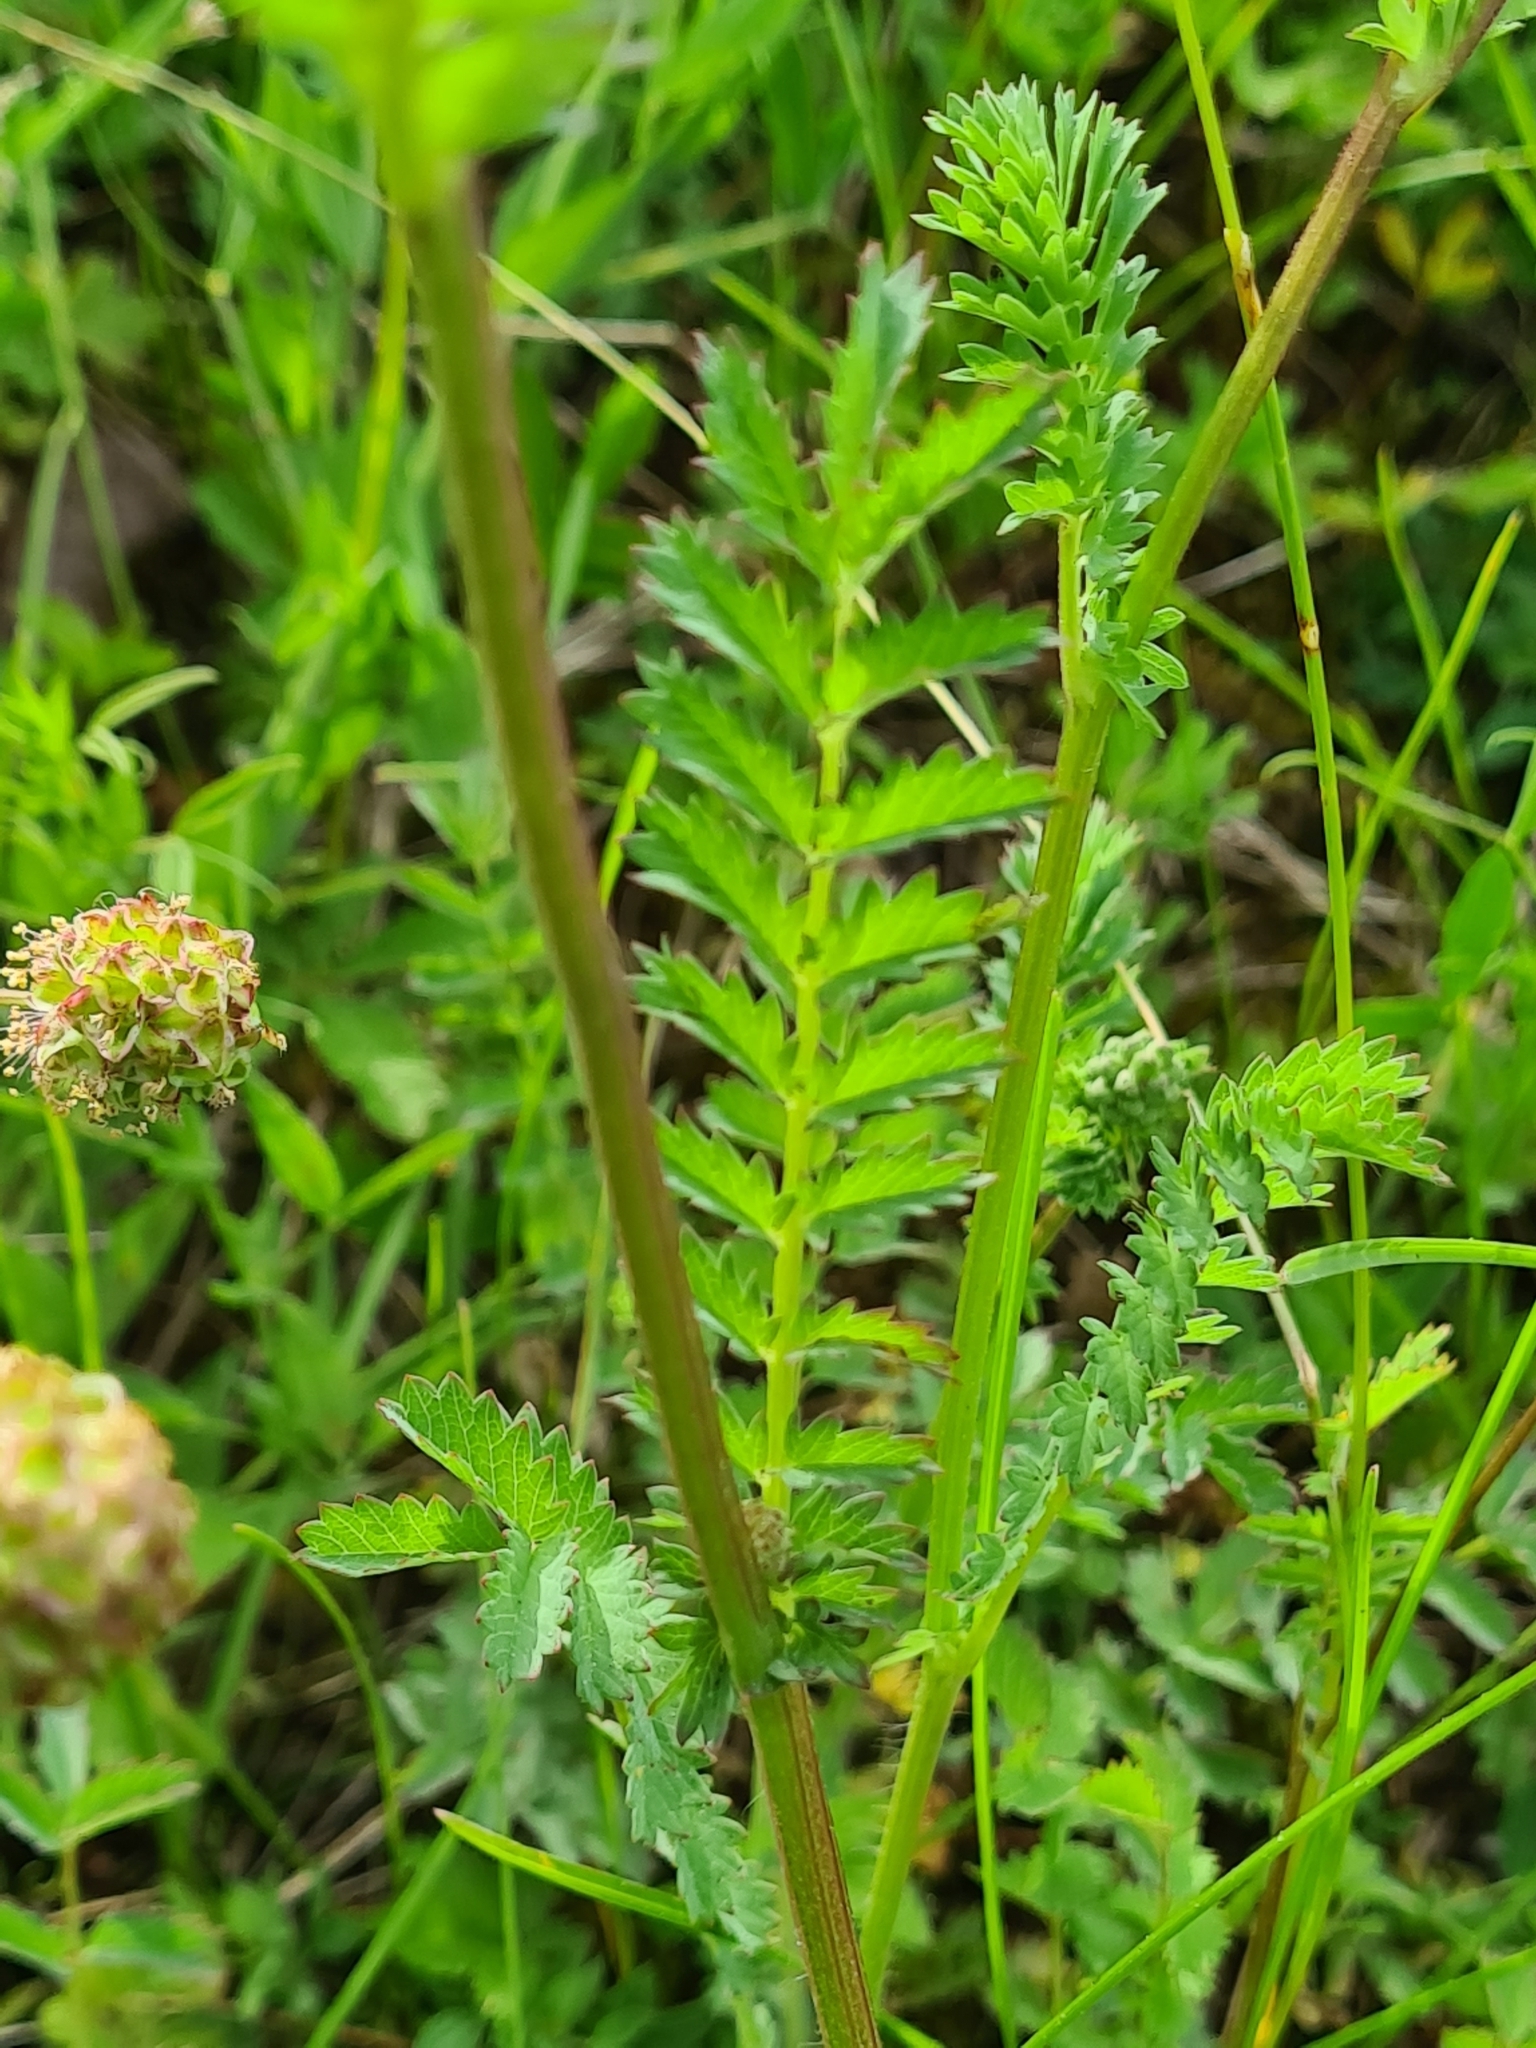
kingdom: Plantae
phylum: Tracheophyta
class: Magnoliopsida
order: Rosales
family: Rosaceae
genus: Poterium
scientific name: Poterium sanguisorba
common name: Salad burnet
